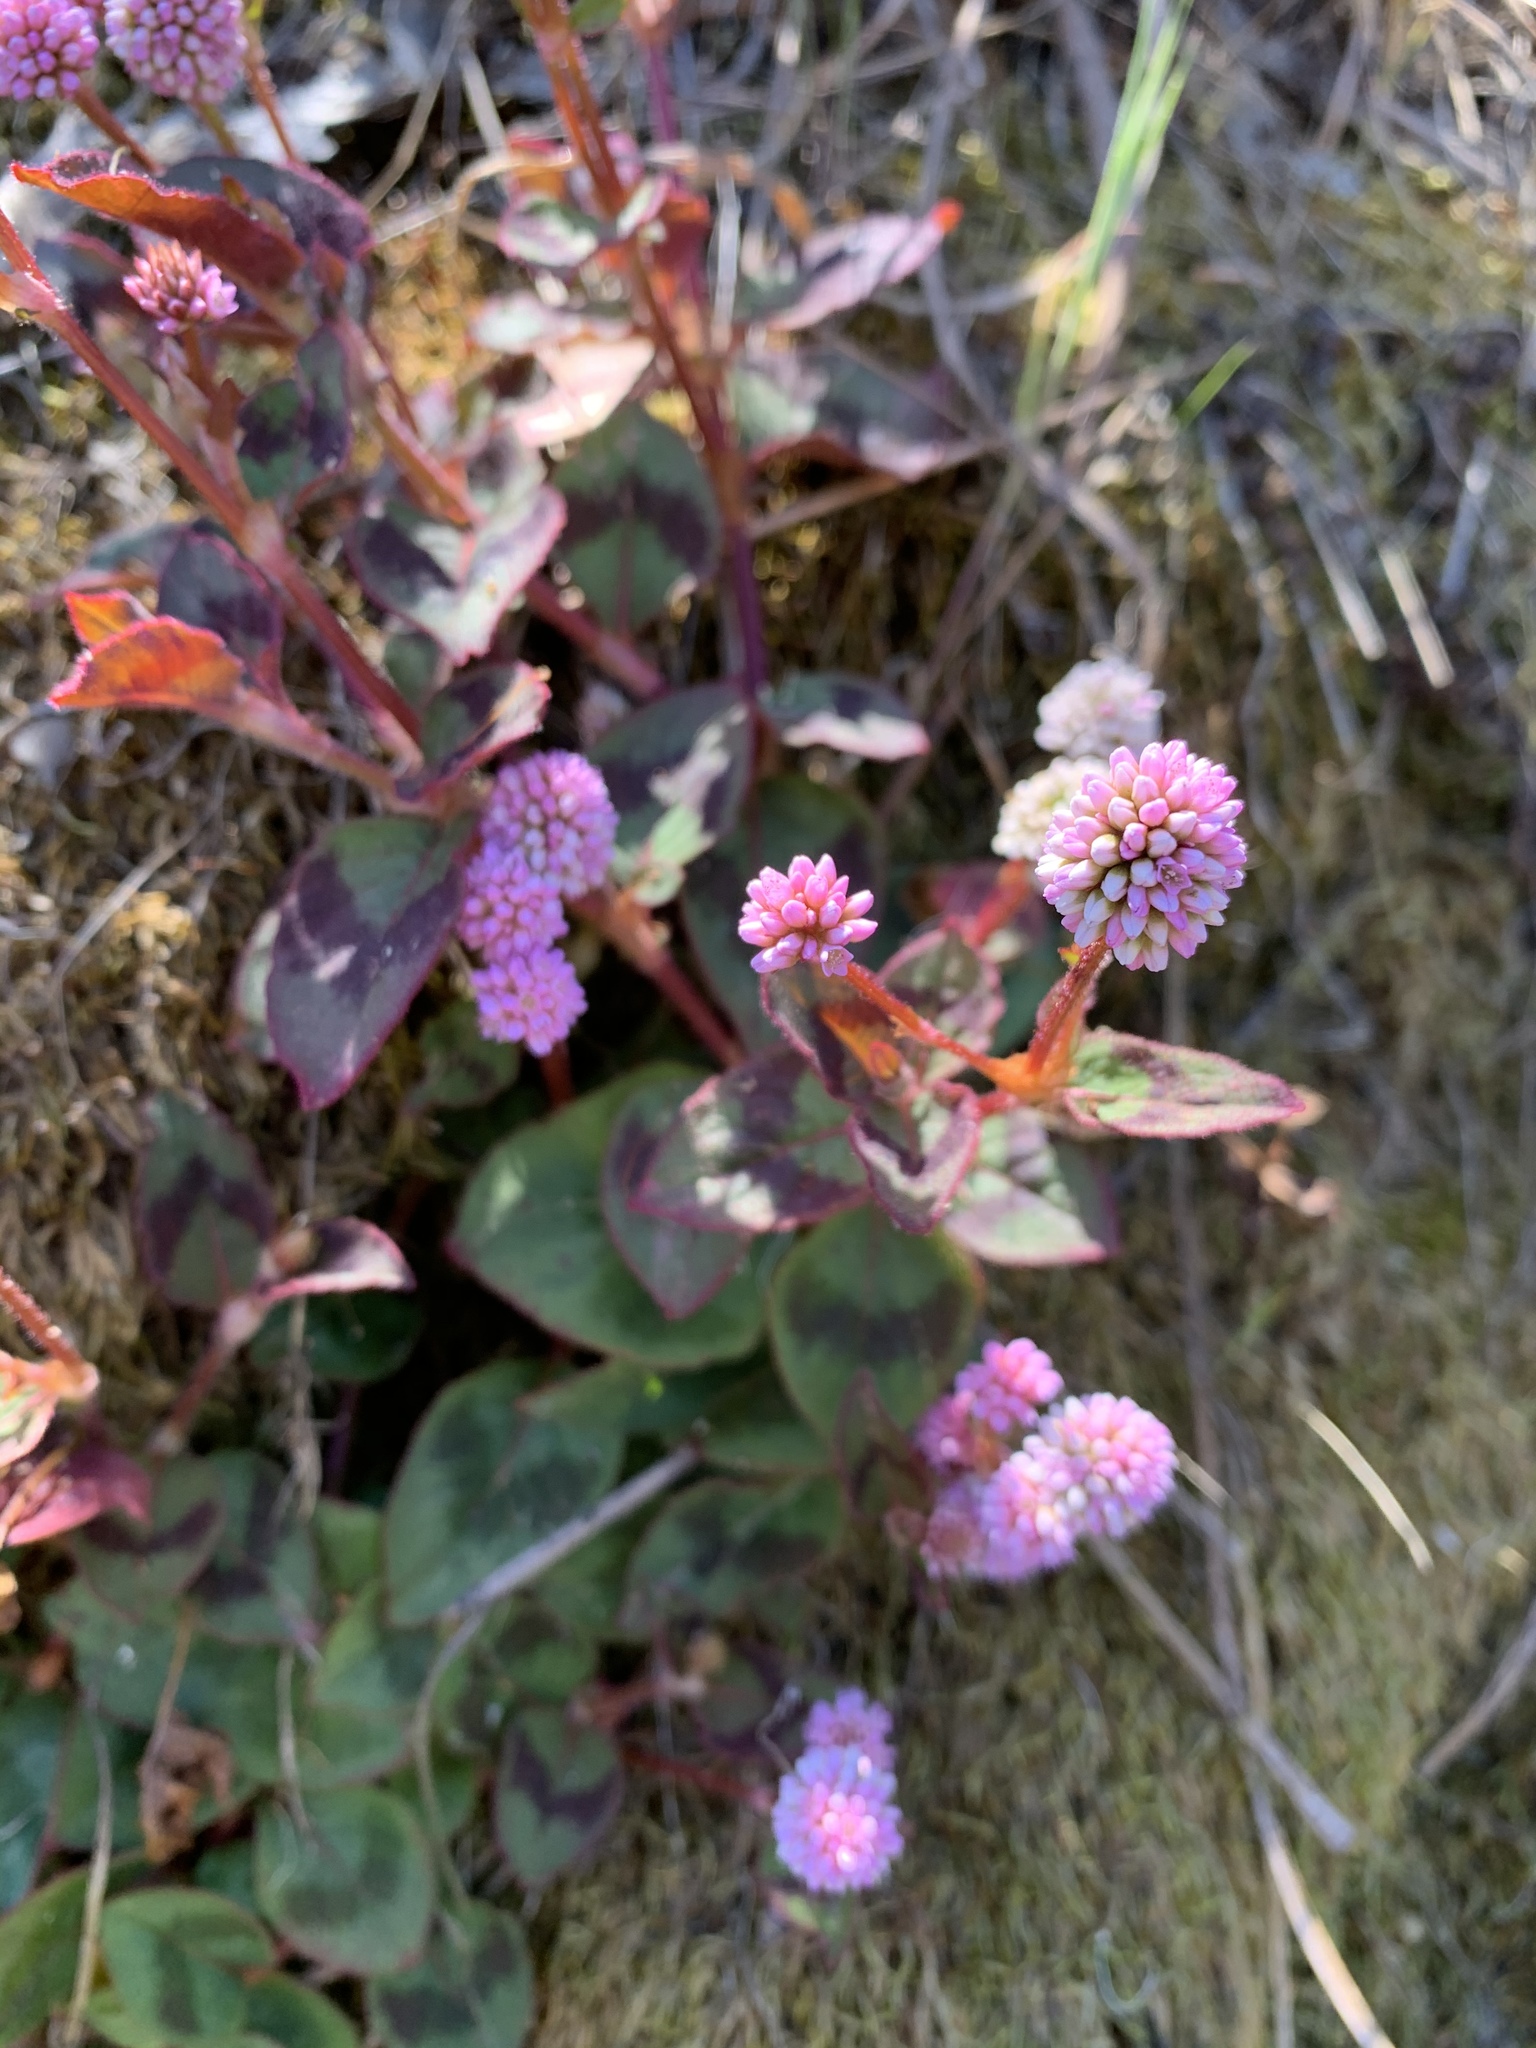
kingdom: Plantae
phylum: Tracheophyta
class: Magnoliopsida
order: Caryophyllales
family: Polygonaceae
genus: Persicaria
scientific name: Persicaria capitata
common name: Pinkhead smartweed
